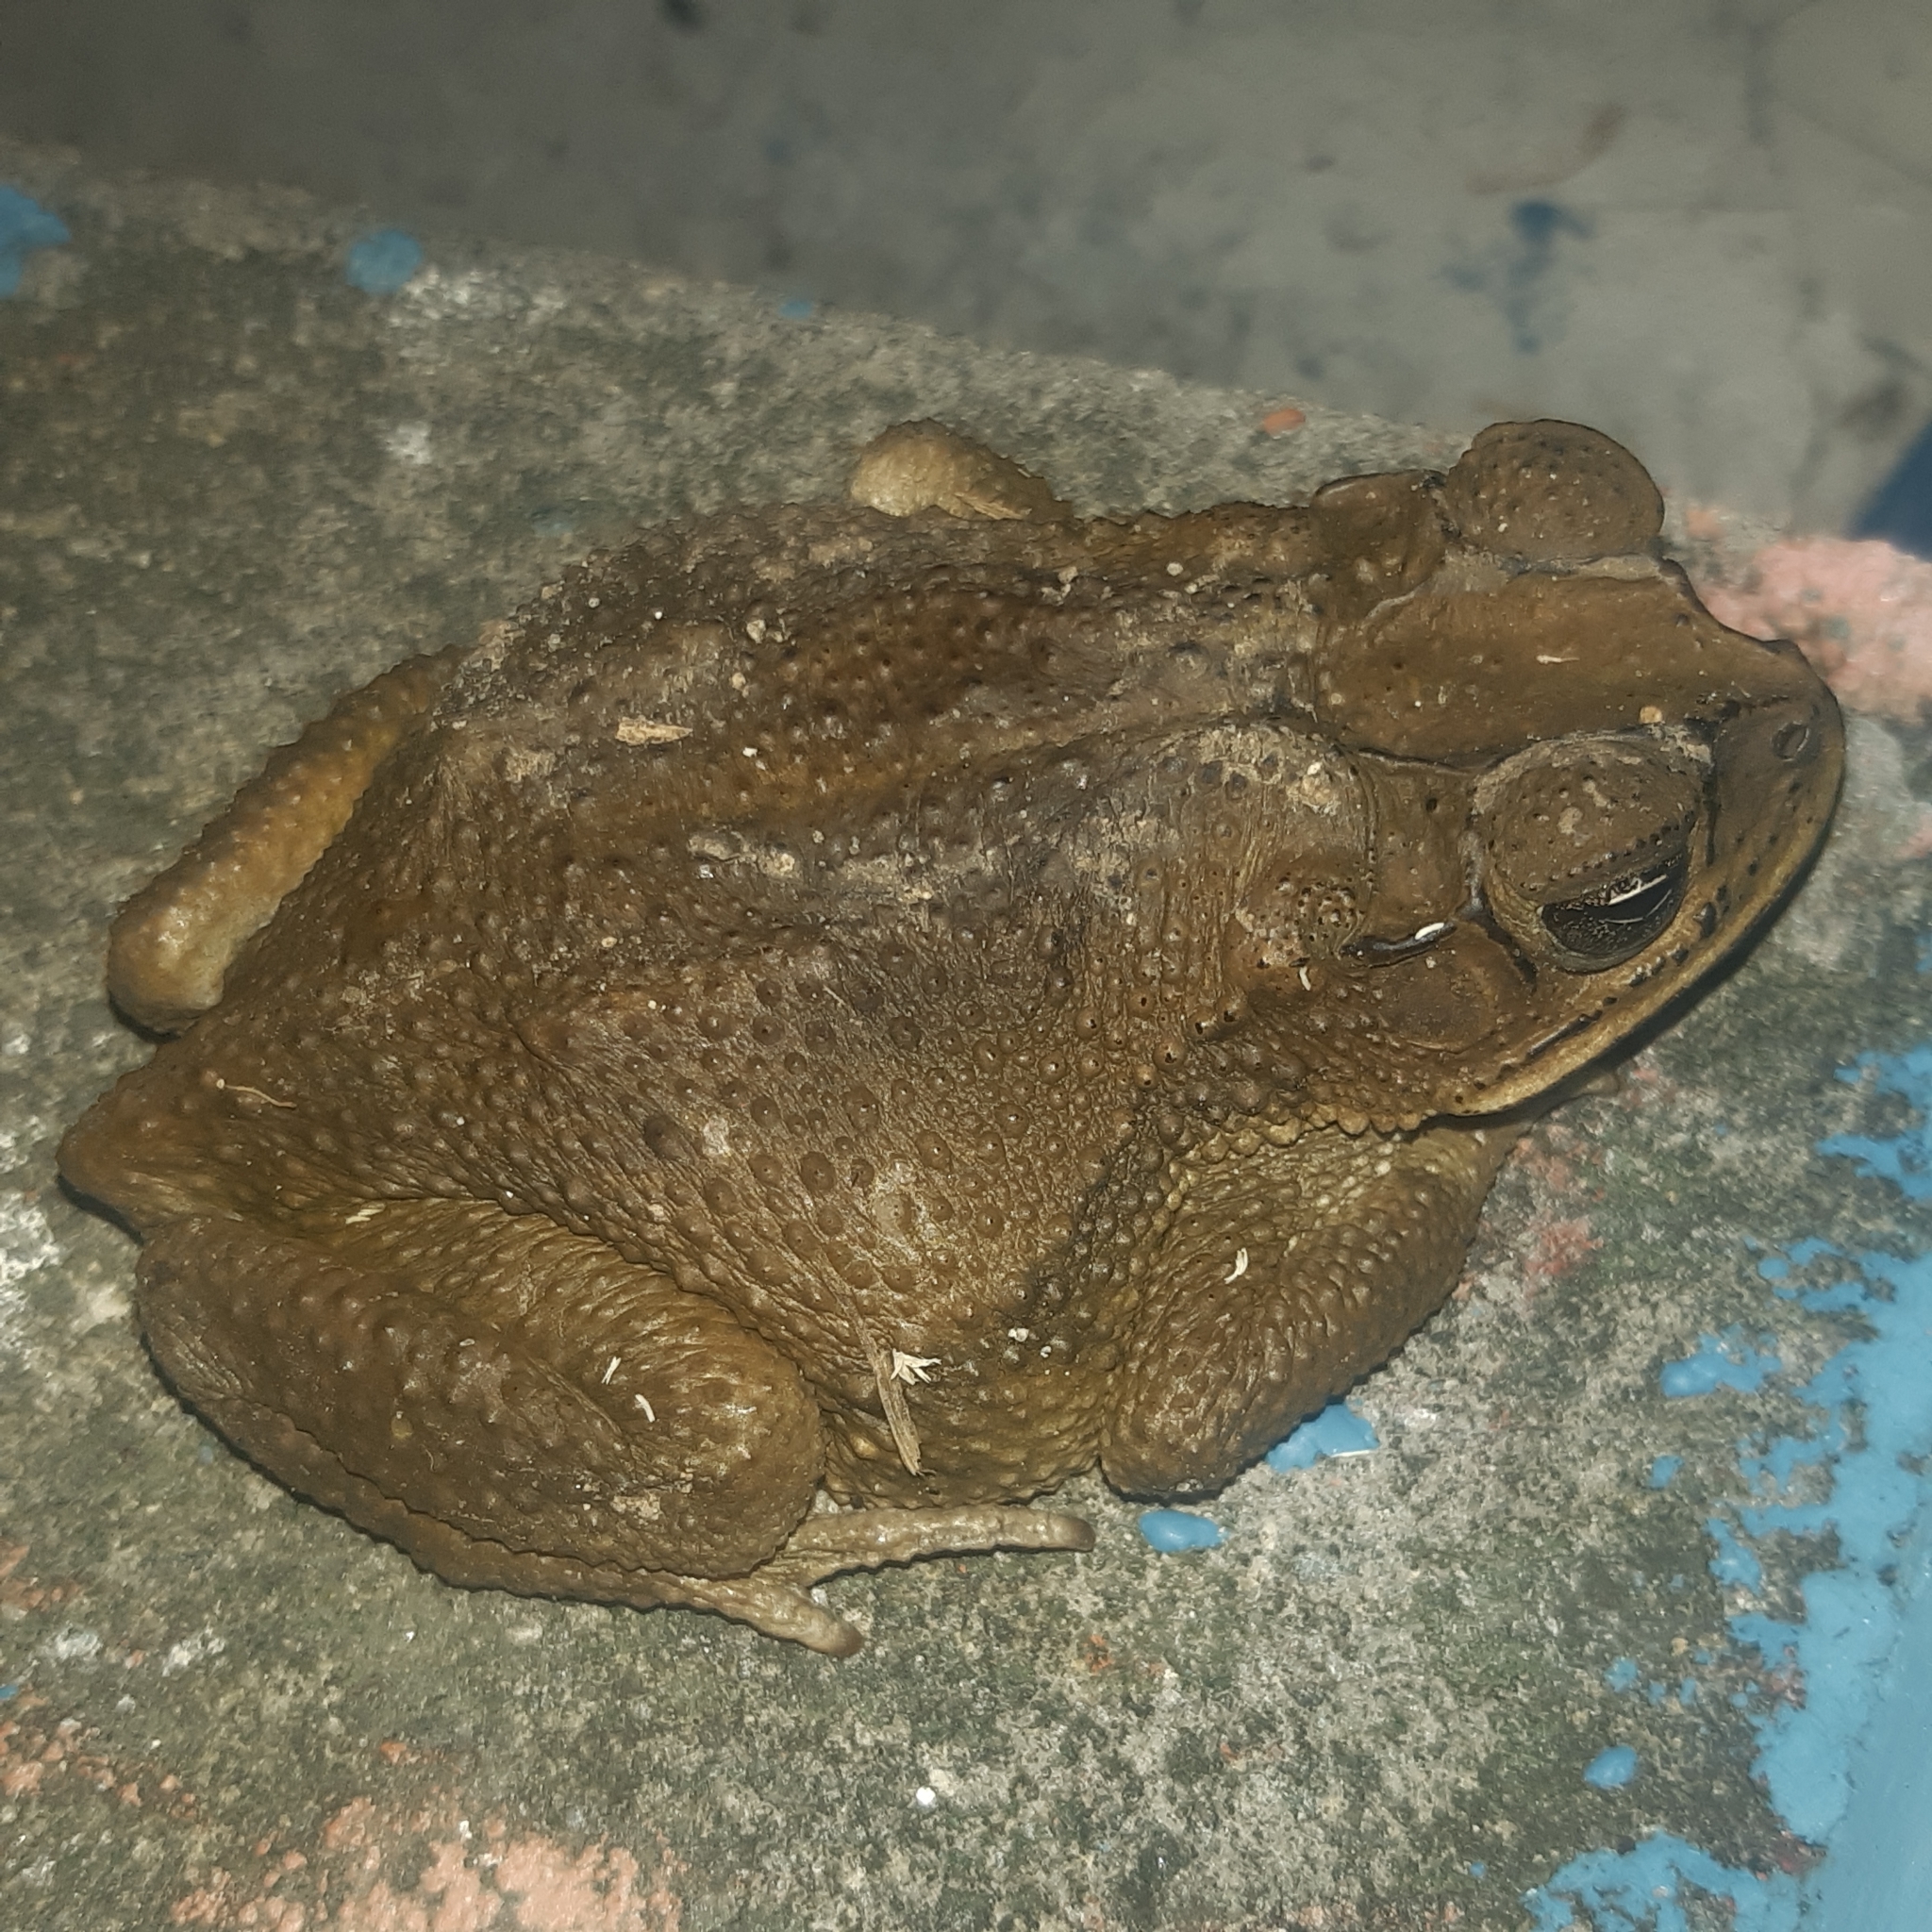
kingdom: Animalia
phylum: Chordata
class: Amphibia
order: Anura
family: Bufonidae
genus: Incilius
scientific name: Incilius luetkenii
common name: Yellow toad
